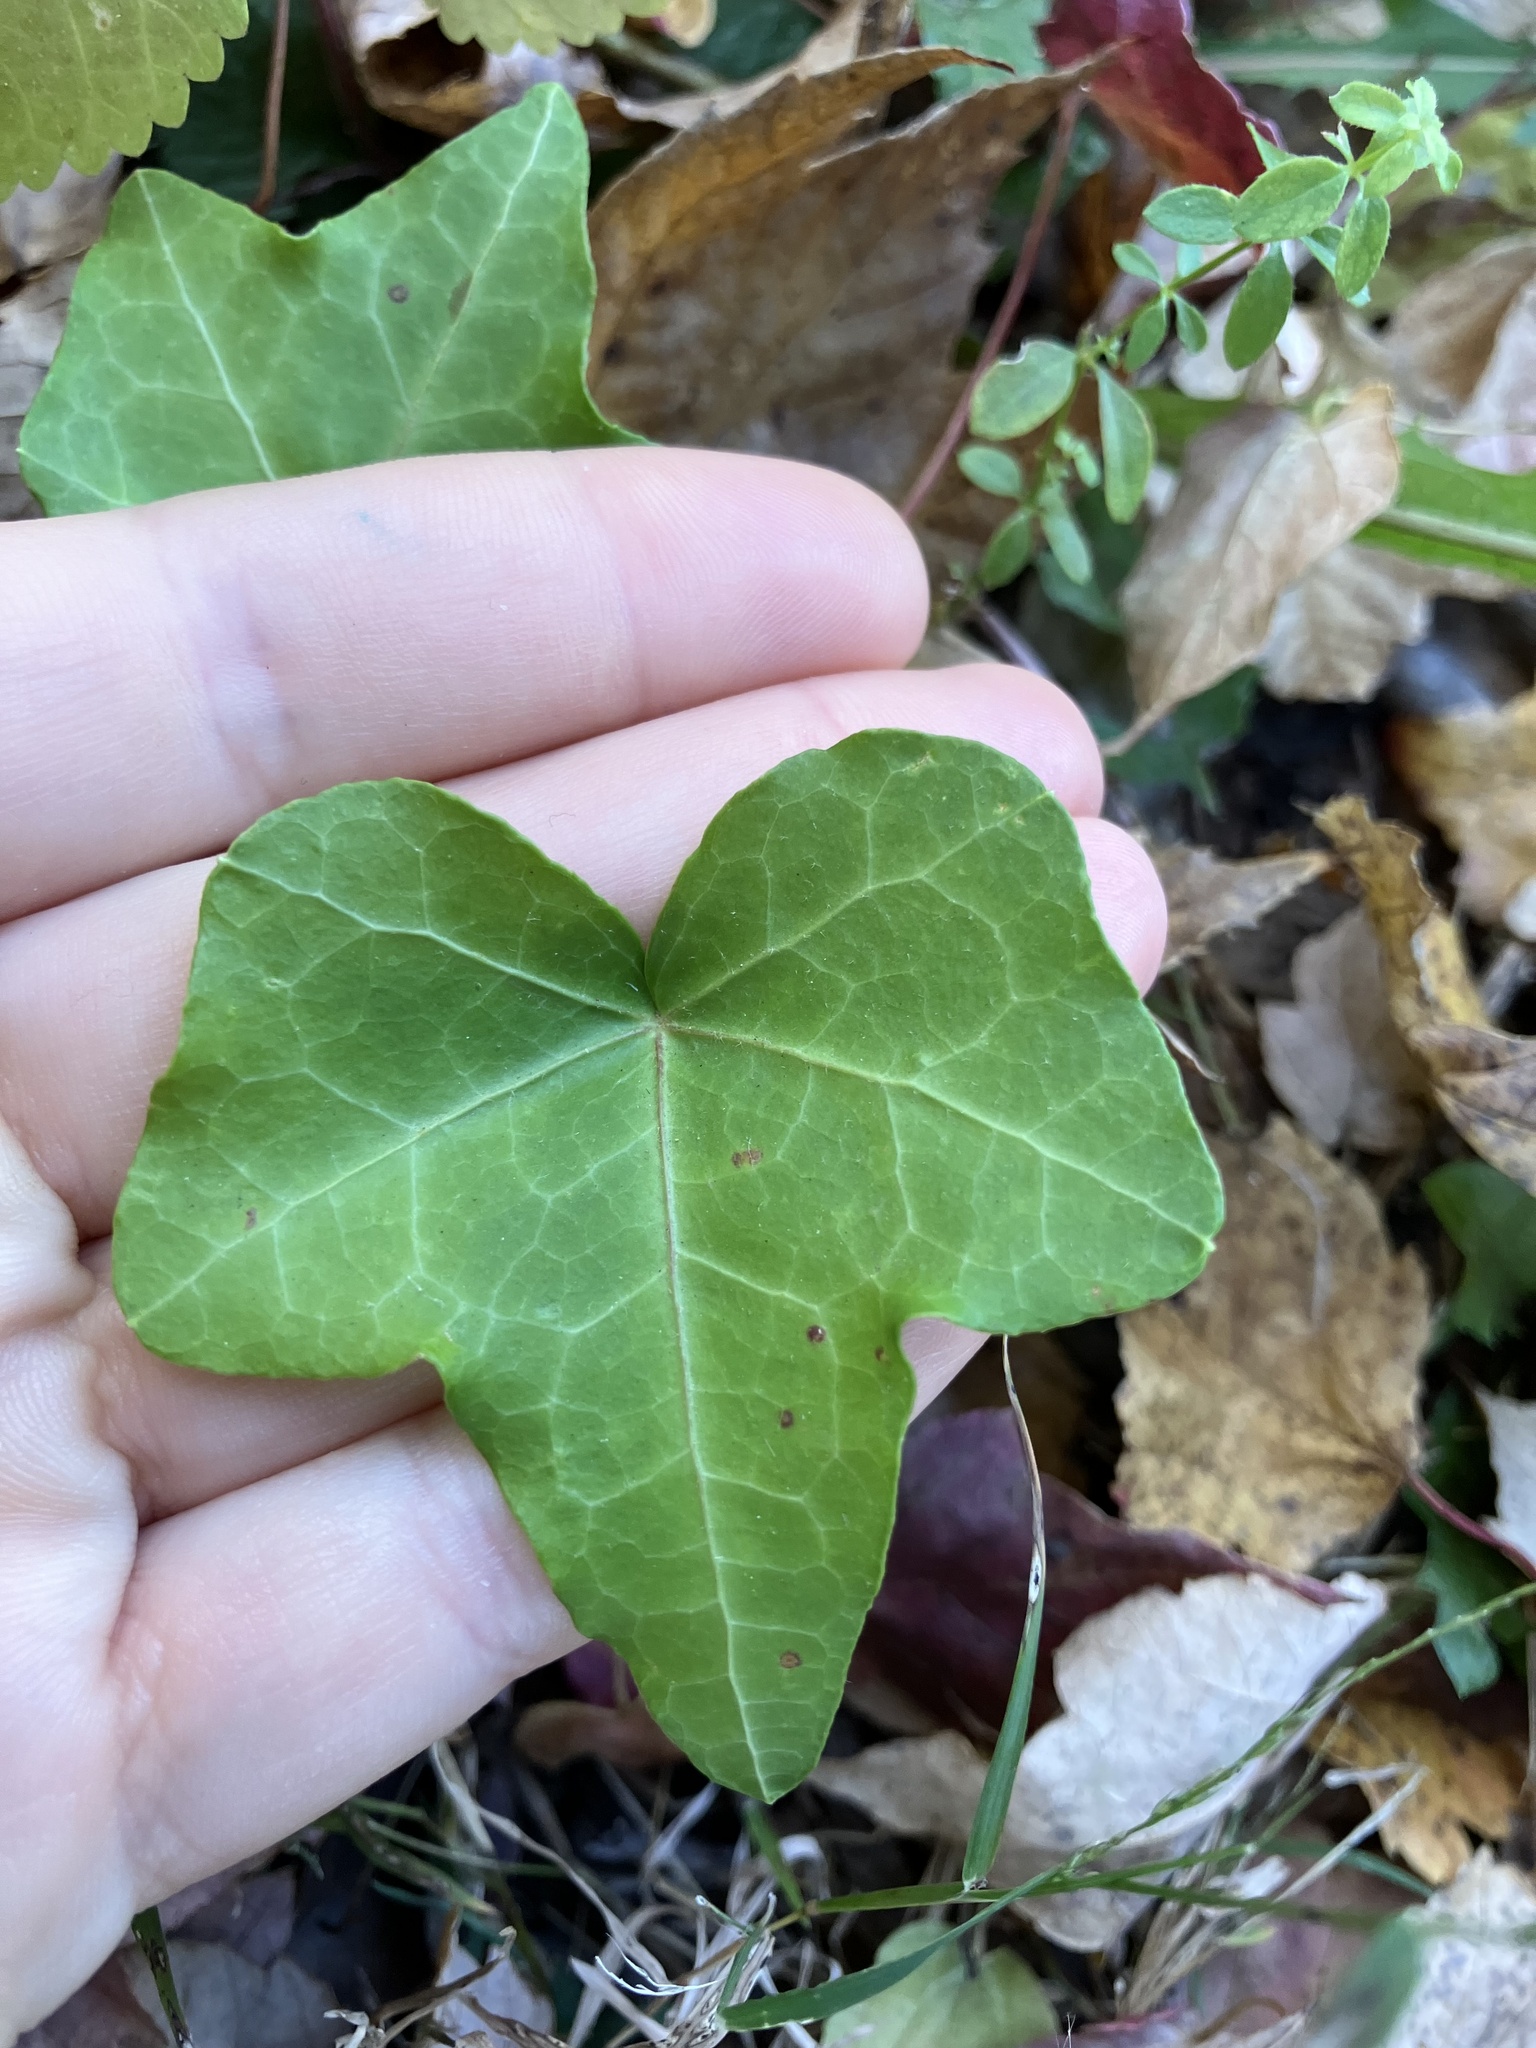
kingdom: Plantae
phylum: Tracheophyta
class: Magnoliopsida
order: Apiales
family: Araliaceae
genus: Hedera
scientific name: Hedera helix
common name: Ivy
